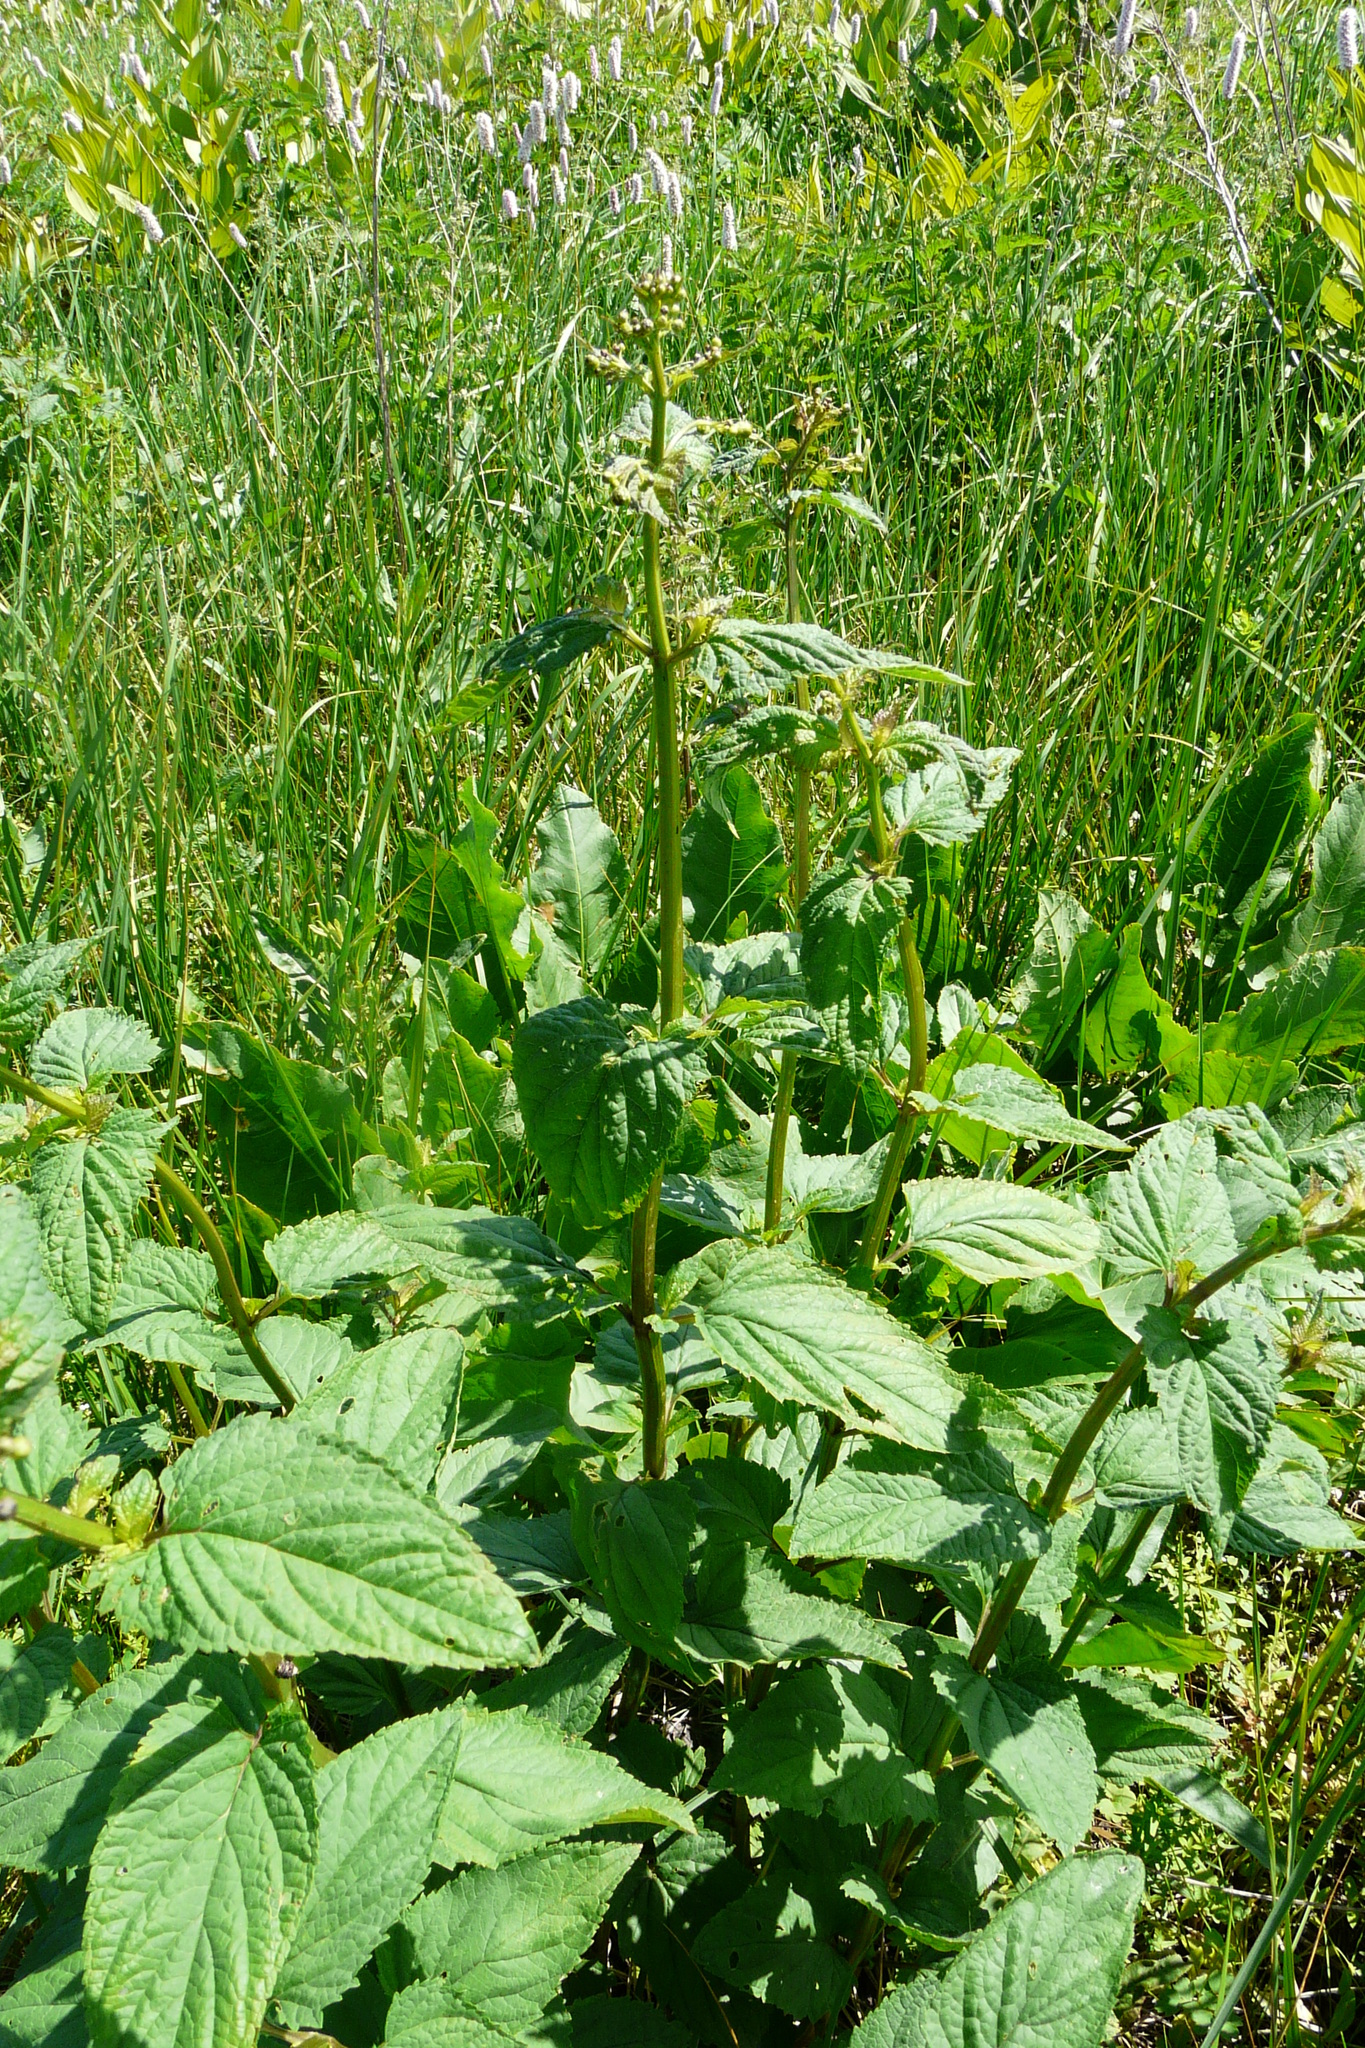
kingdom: Plantae
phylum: Tracheophyta
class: Magnoliopsida
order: Lamiales
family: Scrophulariaceae
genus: Scrophularia
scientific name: Scrophularia nodosa
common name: Common figwort
